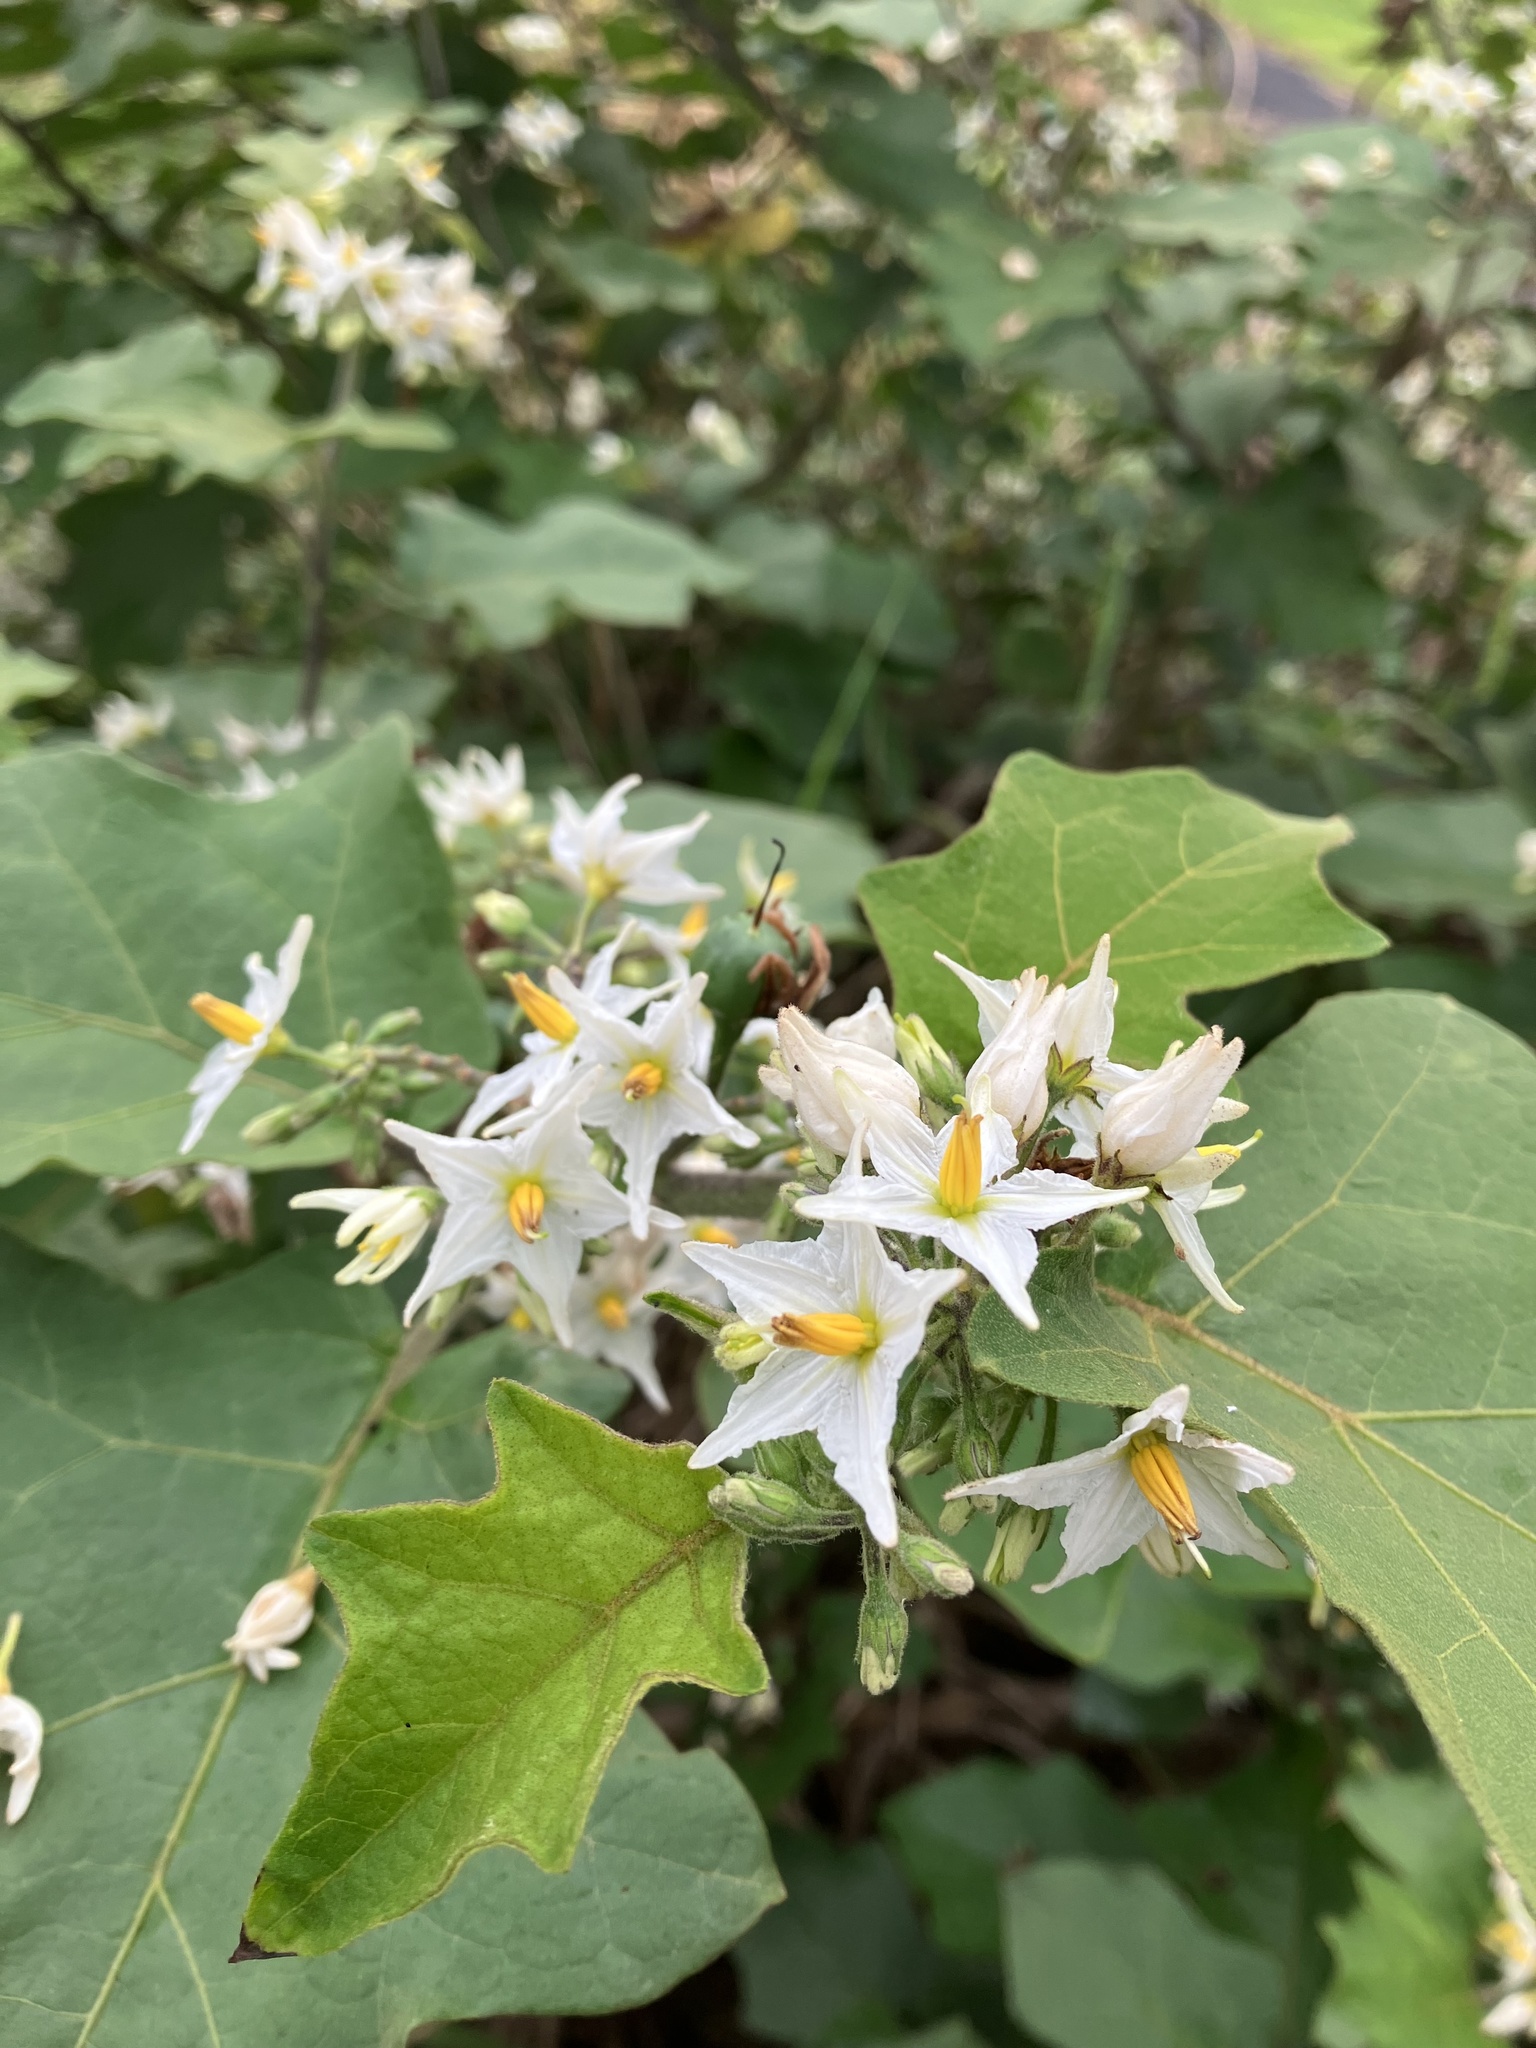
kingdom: Plantae
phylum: Tracheophyta
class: Magnoliopsida
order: Solanales
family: Solanaceae
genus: Solanum
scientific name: Solanum torvum
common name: Turkey berry
